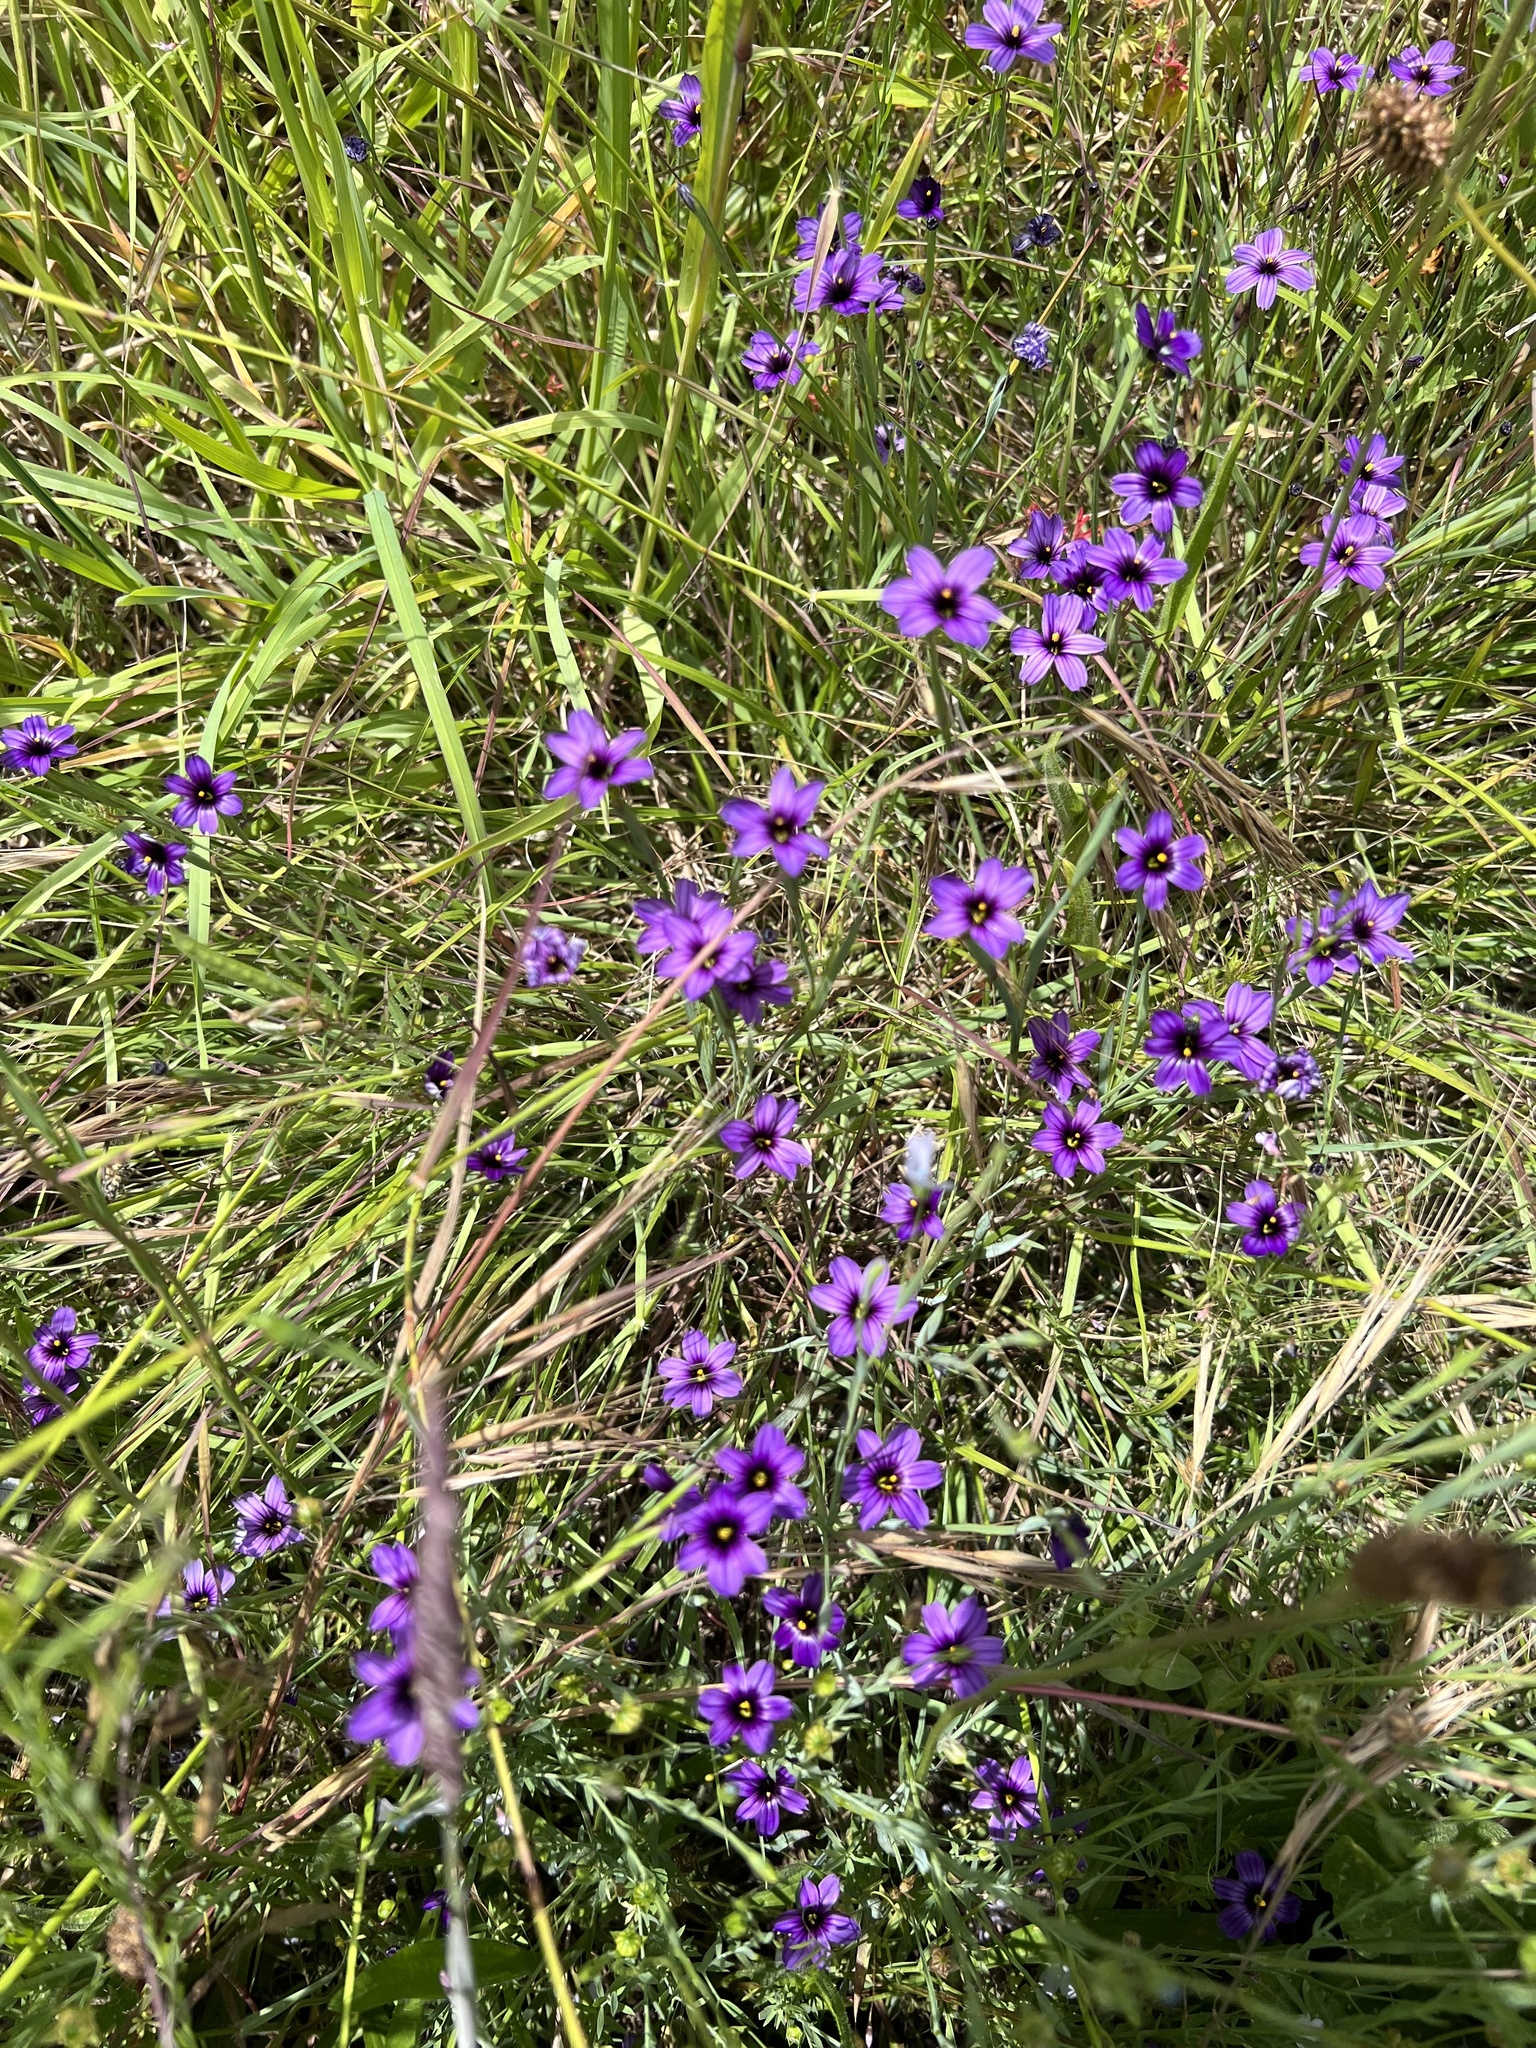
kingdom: Plantae
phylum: Tracheophyta
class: Liliopsida
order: Asparagales
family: Iridaceae
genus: Sisyrinchium
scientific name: Sisyrinchium bellum
